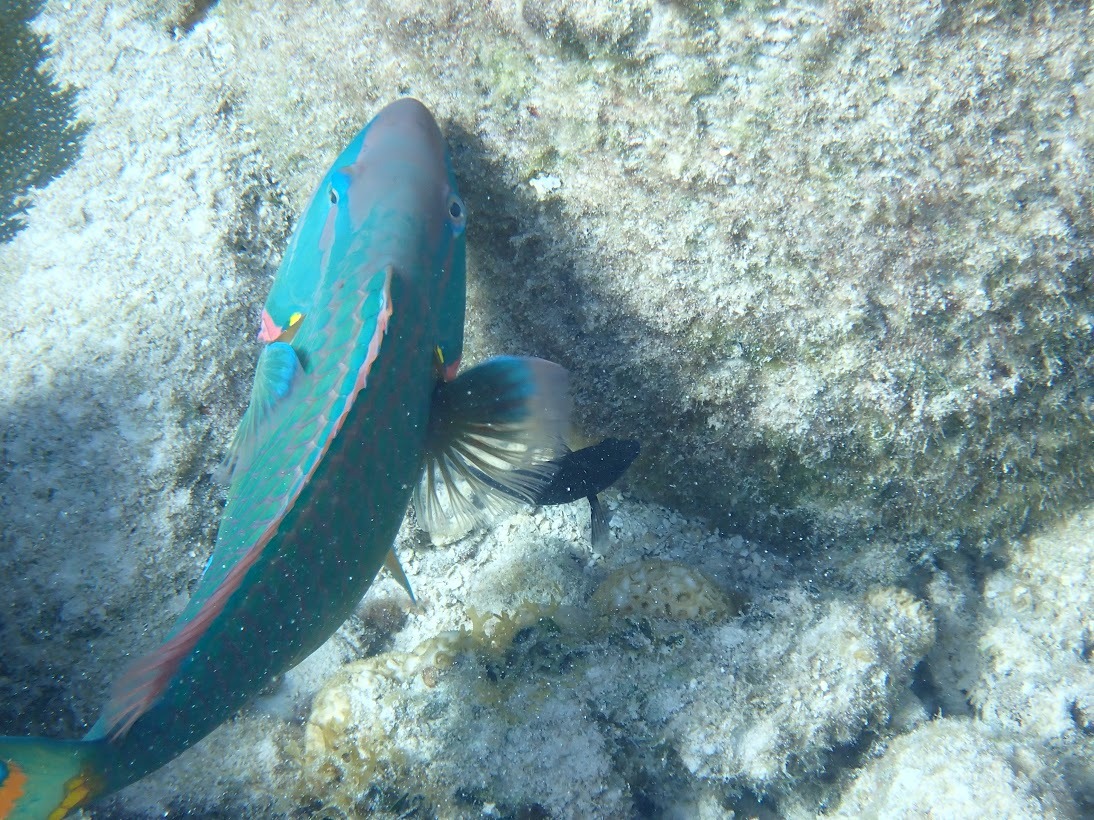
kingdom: Animalia
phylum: Chordata
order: Perciformes
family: Scaridae
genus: Sparisoma
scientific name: Sparisoma viride
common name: Stoplight parrotfish
